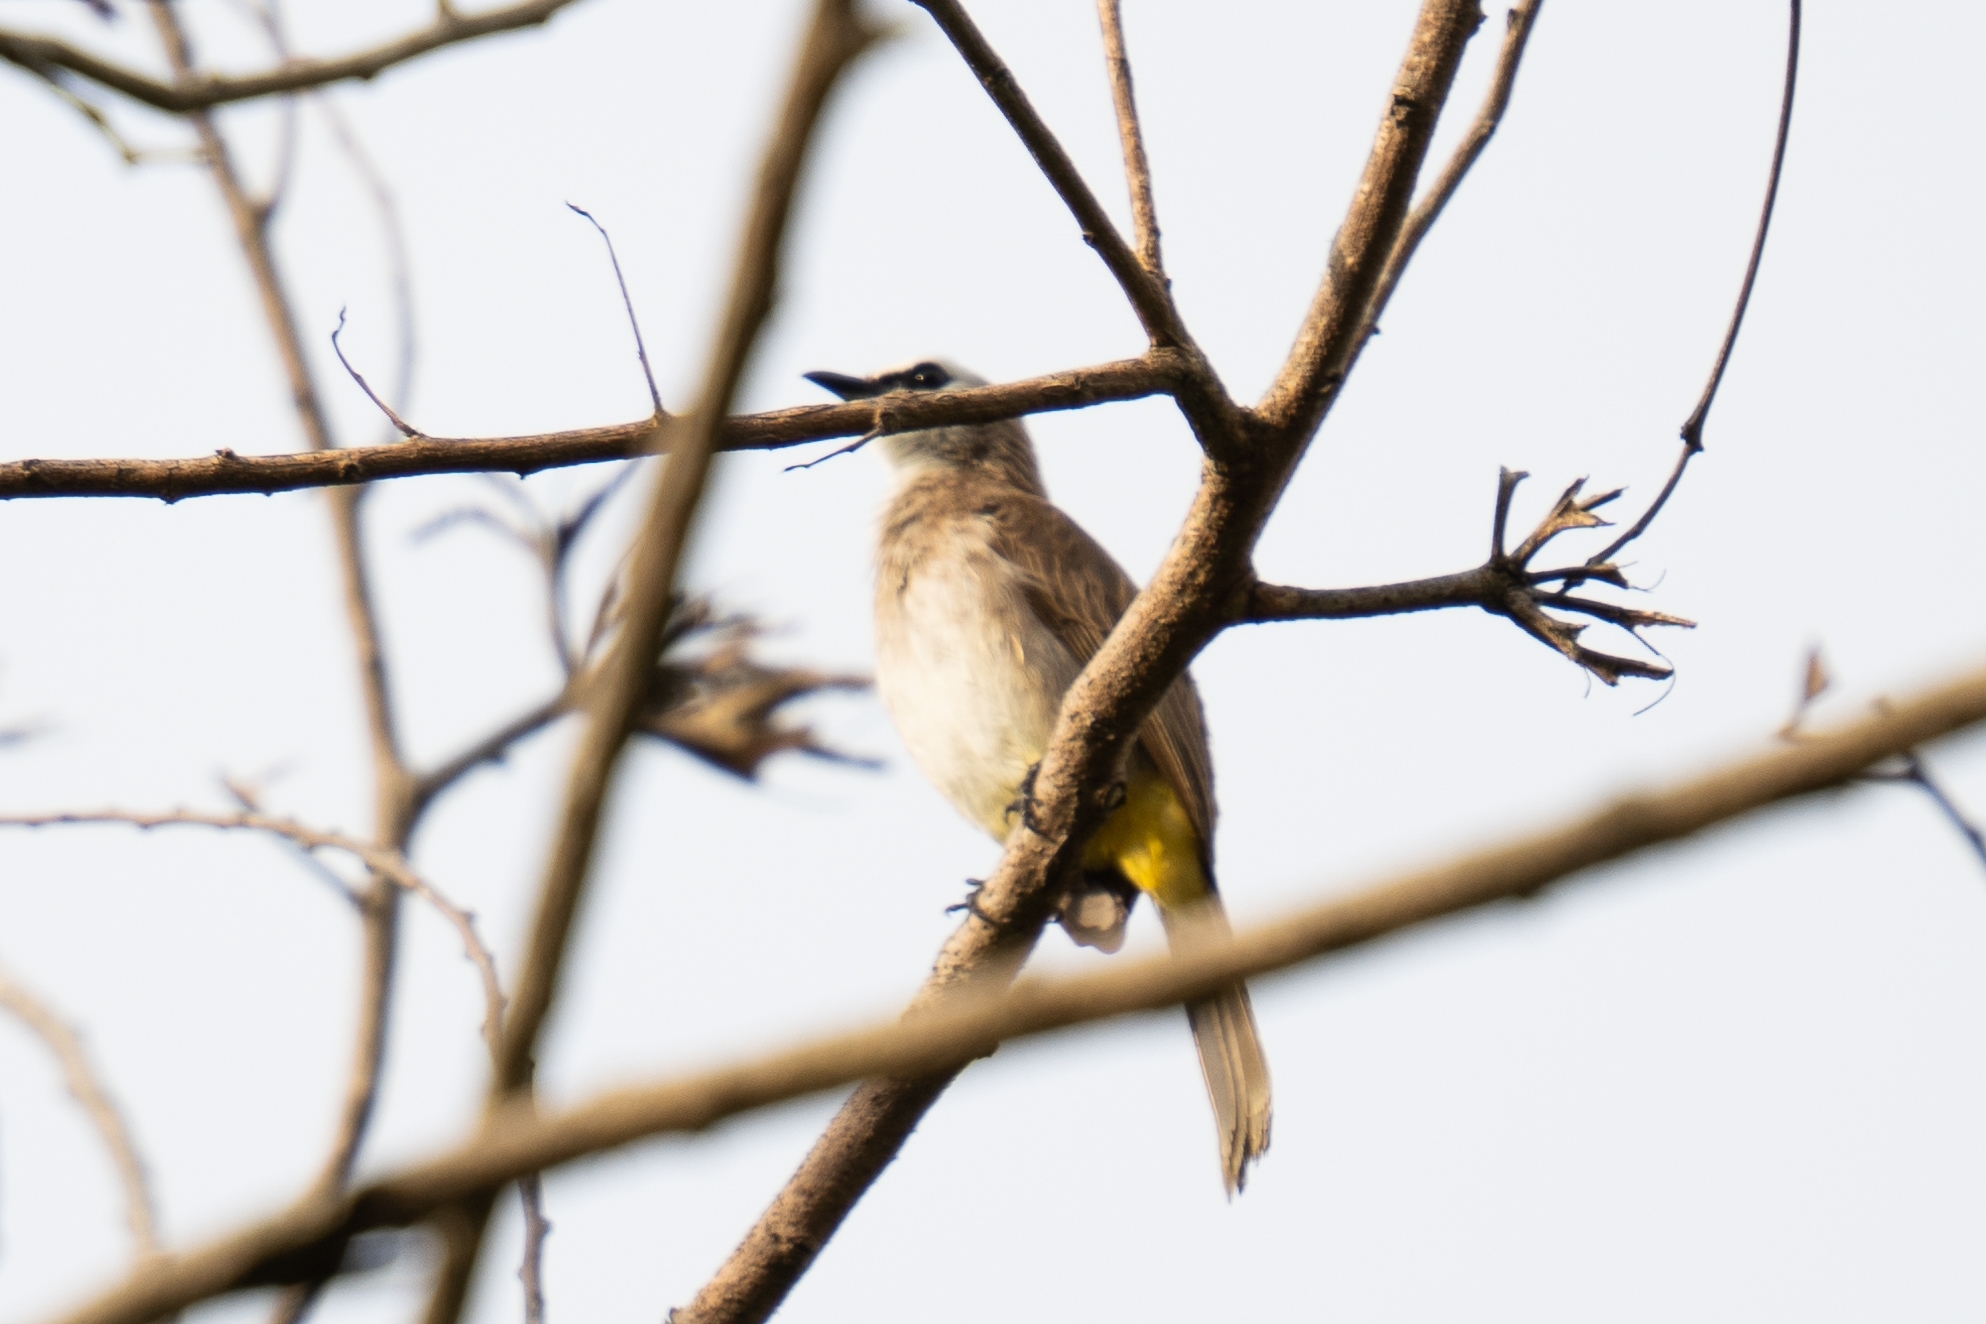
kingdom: Animalia
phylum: Chordata
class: Aves
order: Passeriformes
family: Pycnonotidae
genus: Pycnonotus
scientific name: Pycnonotus goiavier
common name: Yellow-vented bulbul
